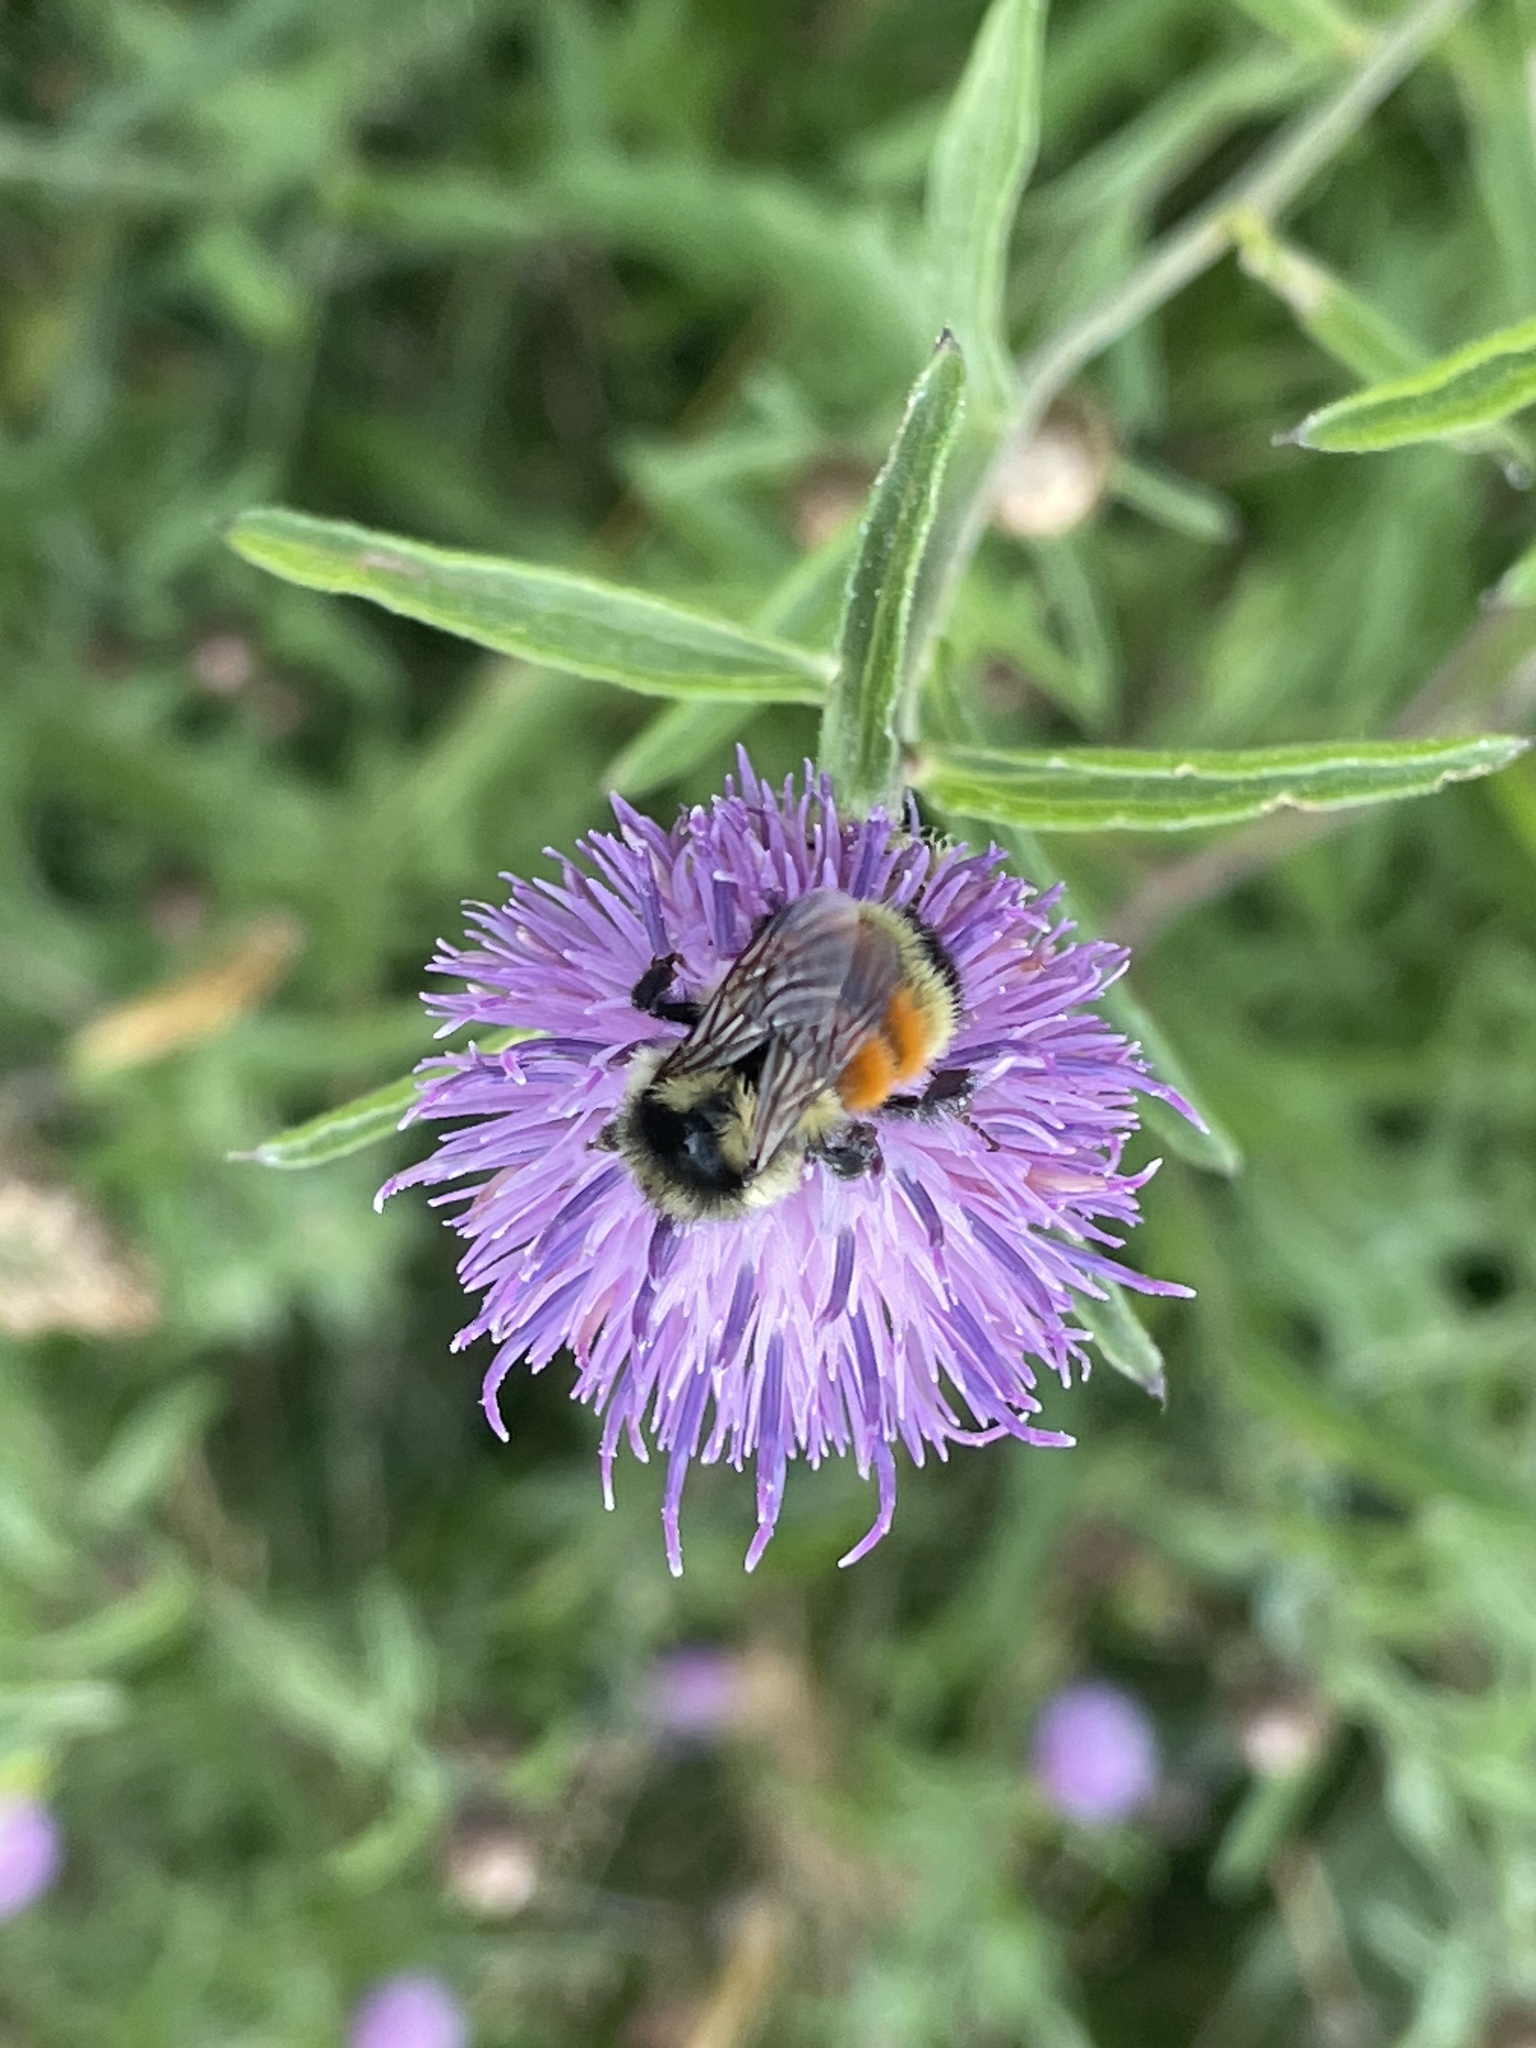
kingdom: Animalia
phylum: Arthropoda
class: Insecta
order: Hymenoptera
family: Apidae
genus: Bombus
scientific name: Bombus ternarius
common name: Tri-colored bumble bee
